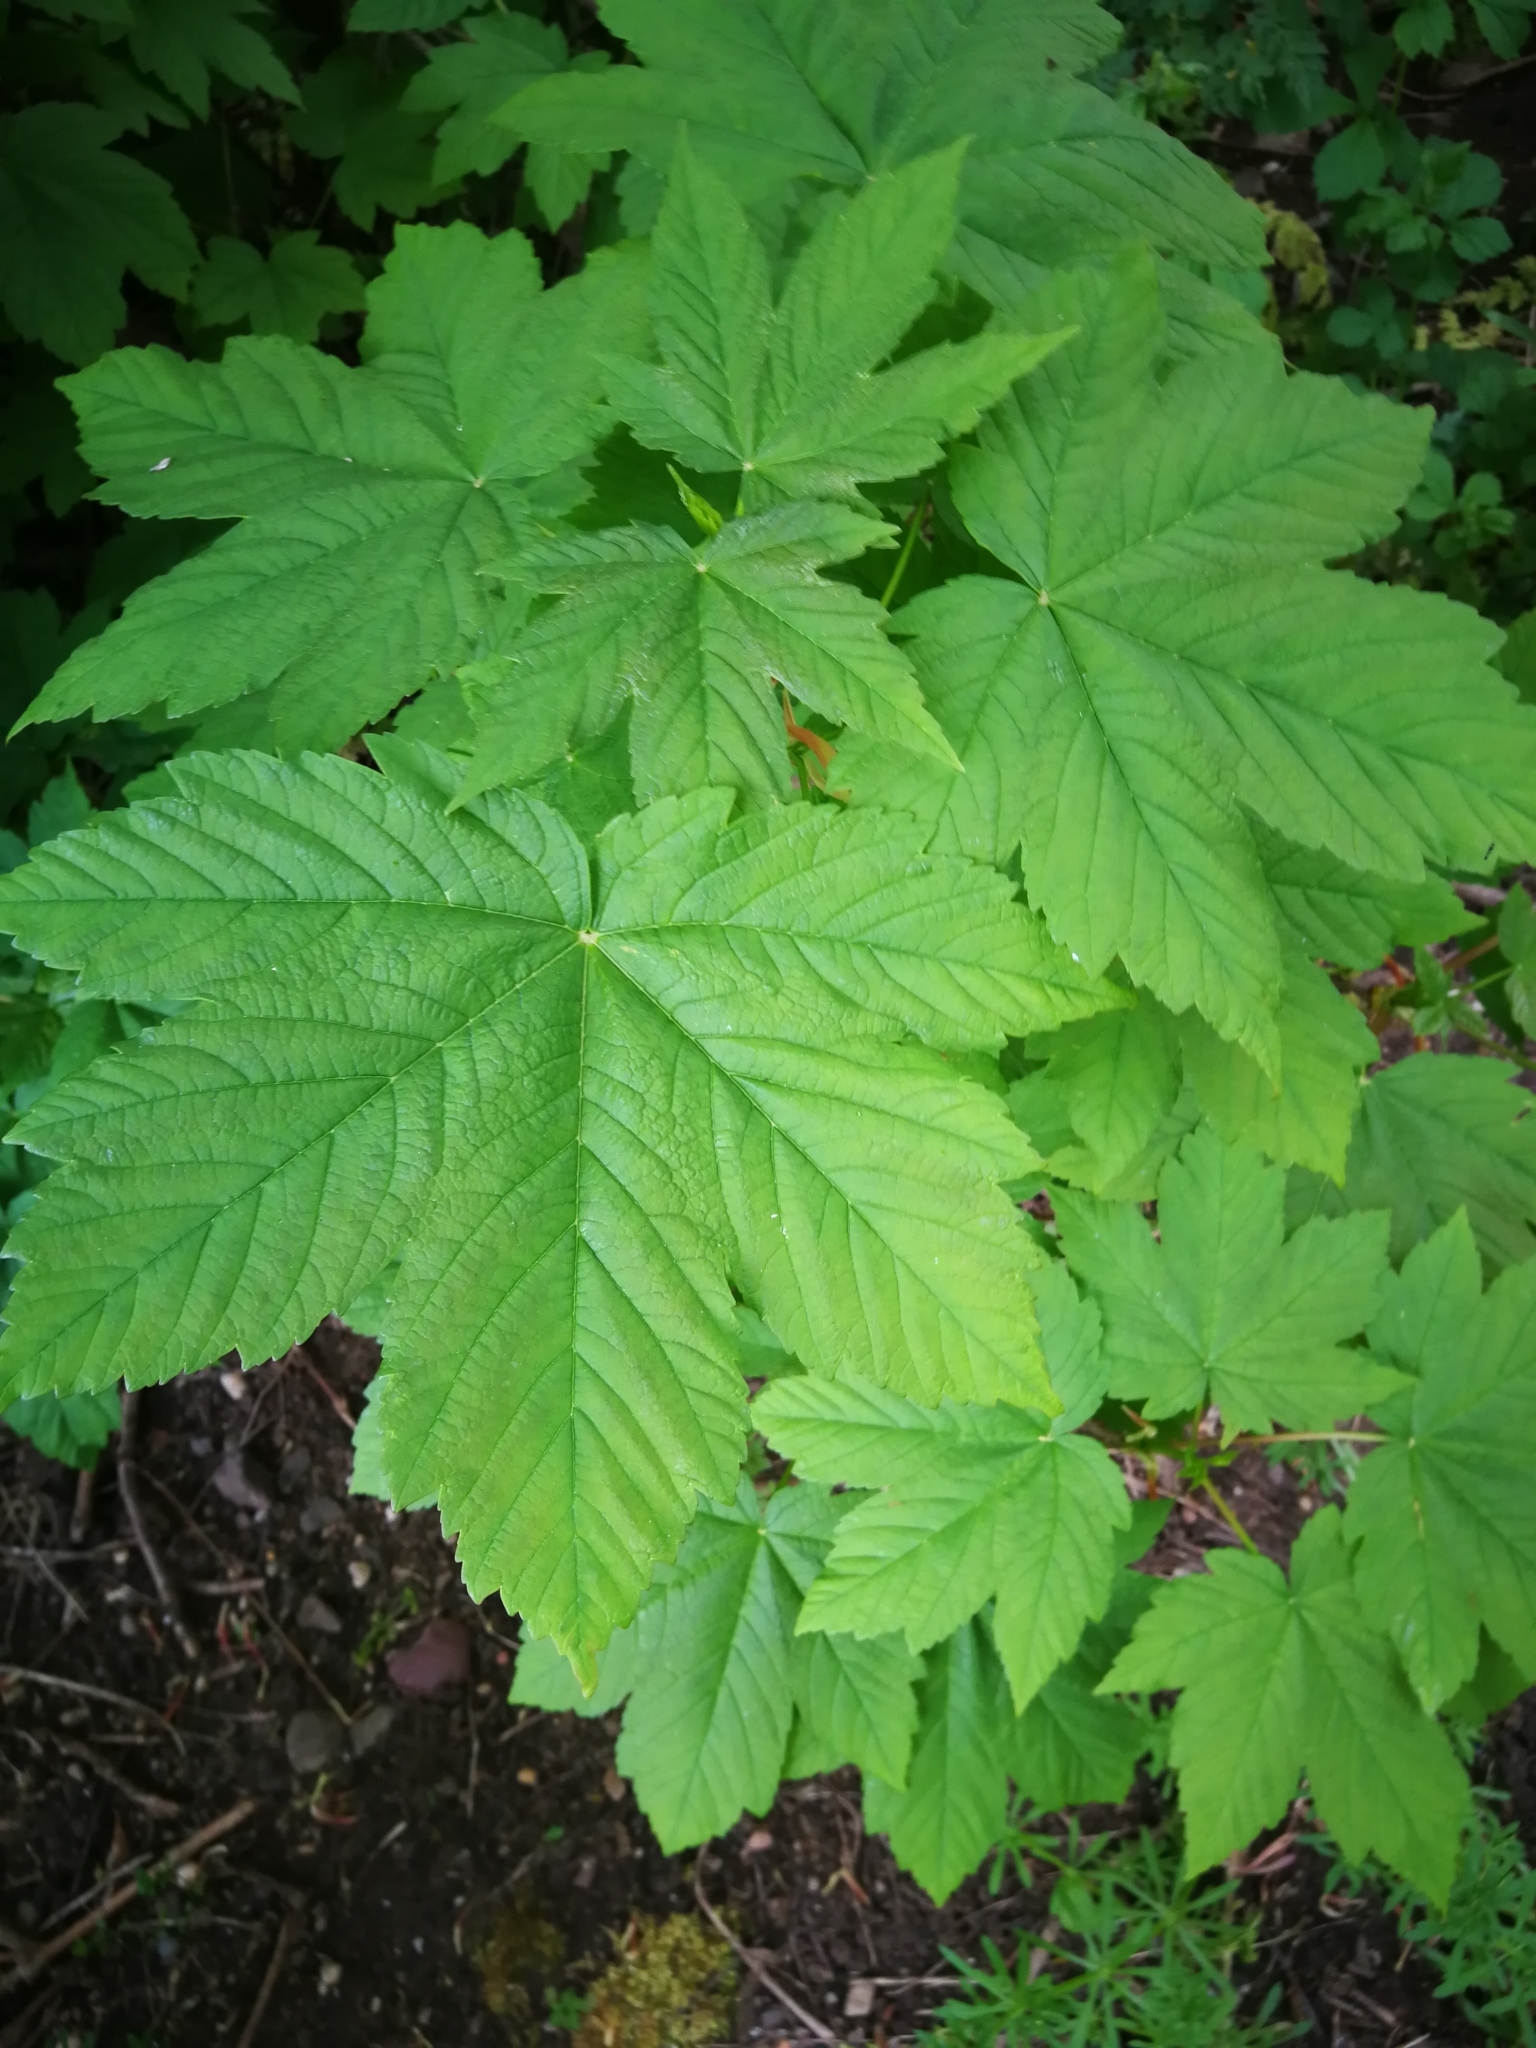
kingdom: Plantae
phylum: Tracheophyta
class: Magnoliopsida
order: Sapindales
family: Sapindaceae
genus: Acer
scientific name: Acer pseudoplatanus
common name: Sycamore
